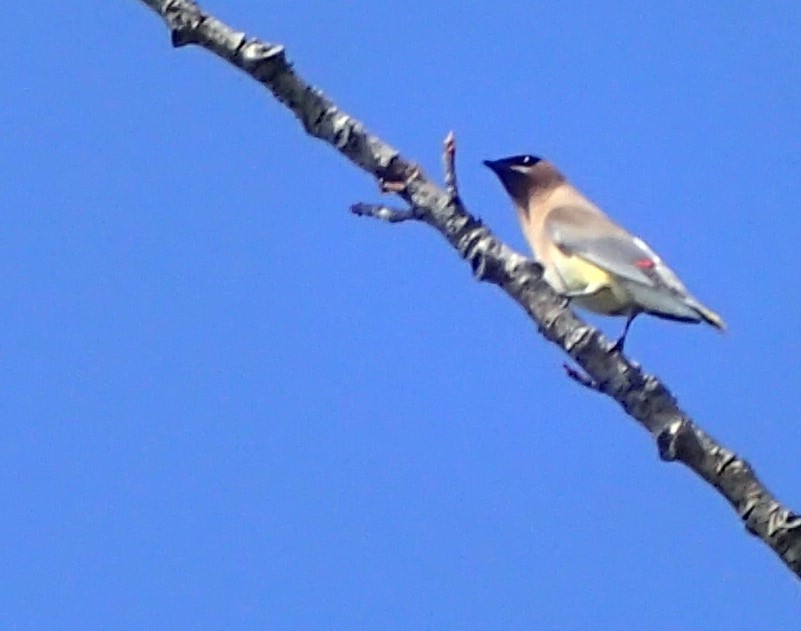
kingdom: Animalia
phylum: Chordata
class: Aves
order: Passeriformes
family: Bombycillidae
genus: Bombycilla
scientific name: Bombycilla cedrorum
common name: Cedar waxwing
